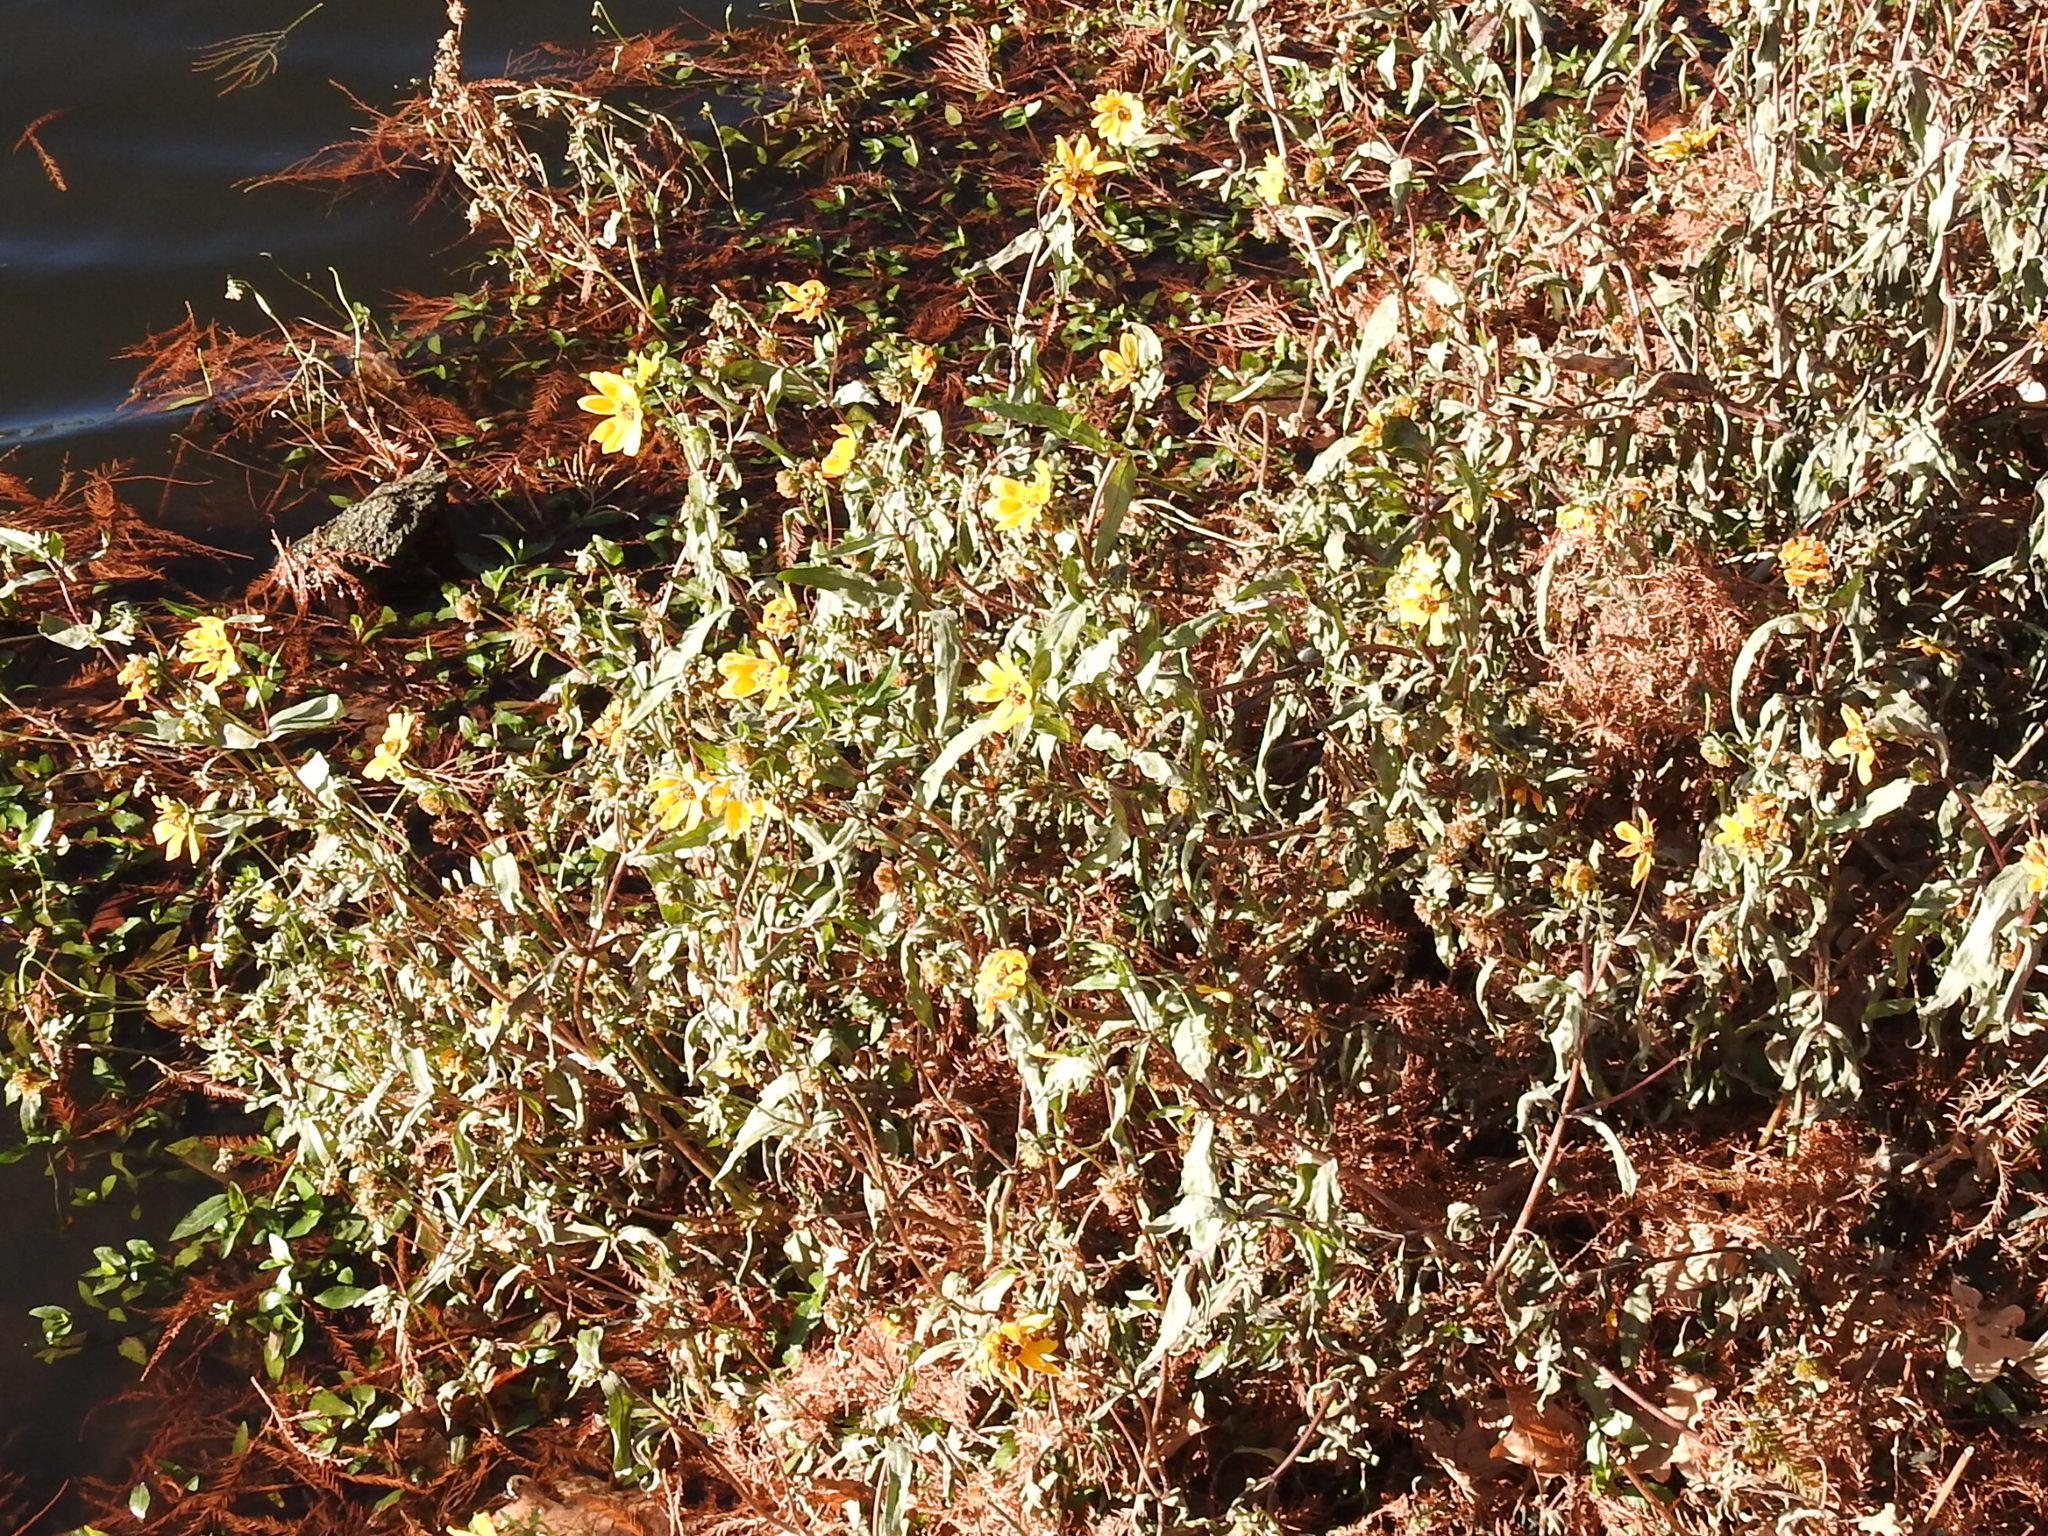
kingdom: Plantae
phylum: Tracheophyta
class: Magnoliopsida
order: Asterales
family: Asteraceae
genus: Bidens
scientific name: Bidens laevis
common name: Larger bur-marigold
